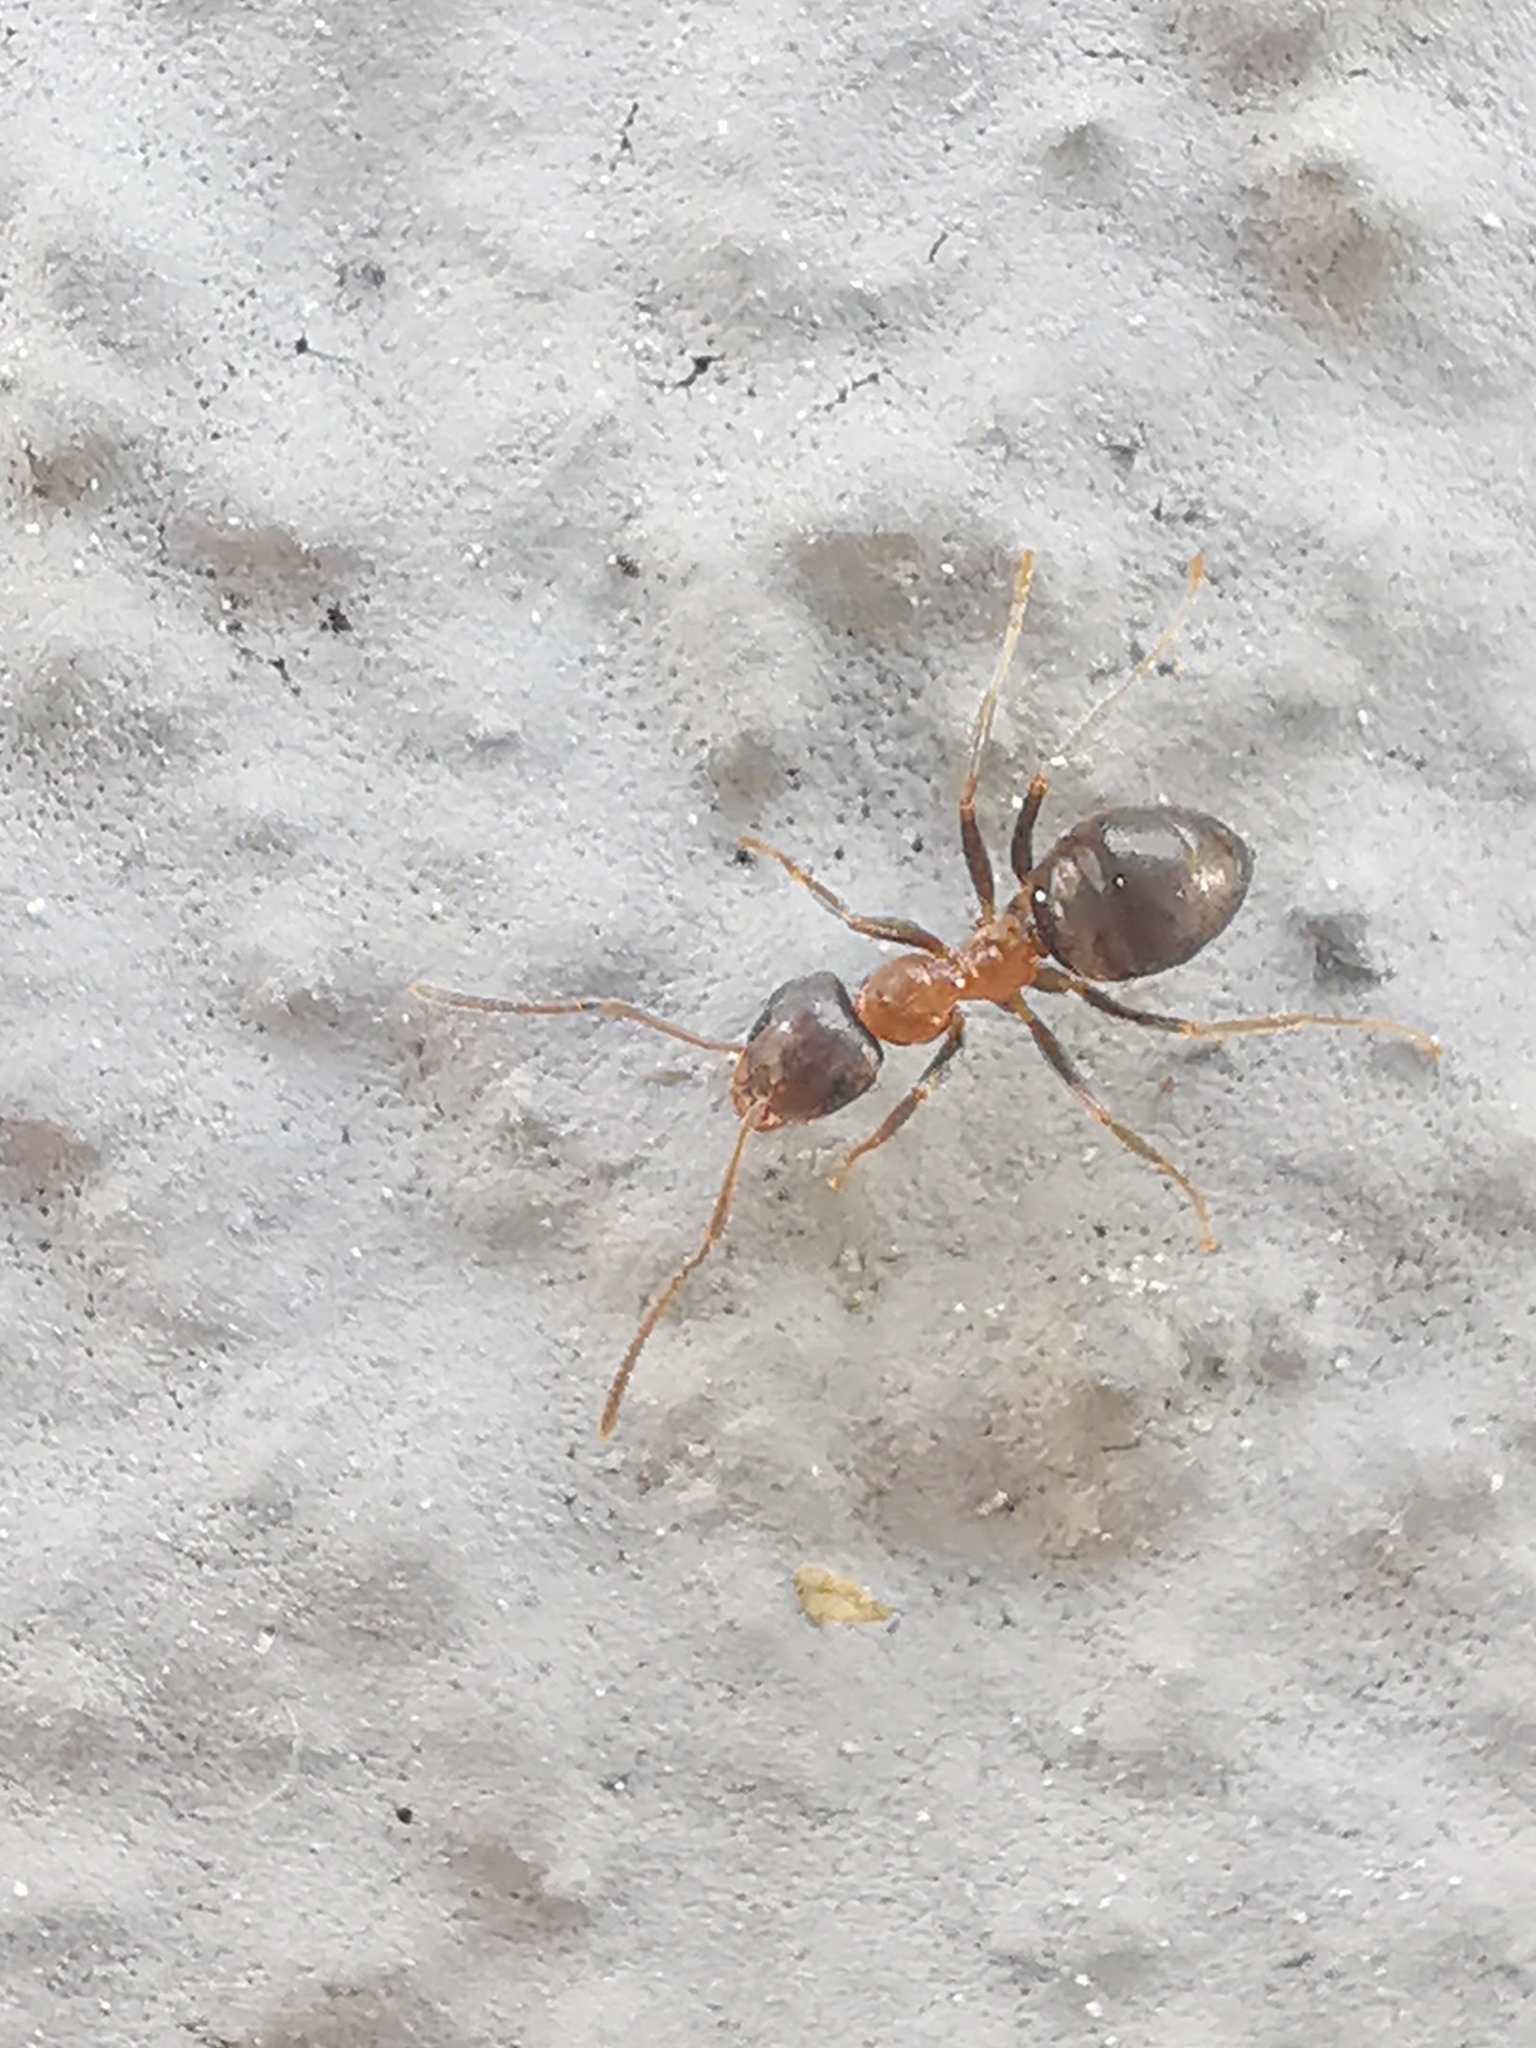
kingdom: Animalia
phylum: Arthropoda
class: Insecta
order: Hymenoptera
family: Formicidae
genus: Lasius
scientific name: Lasius emarginatus
